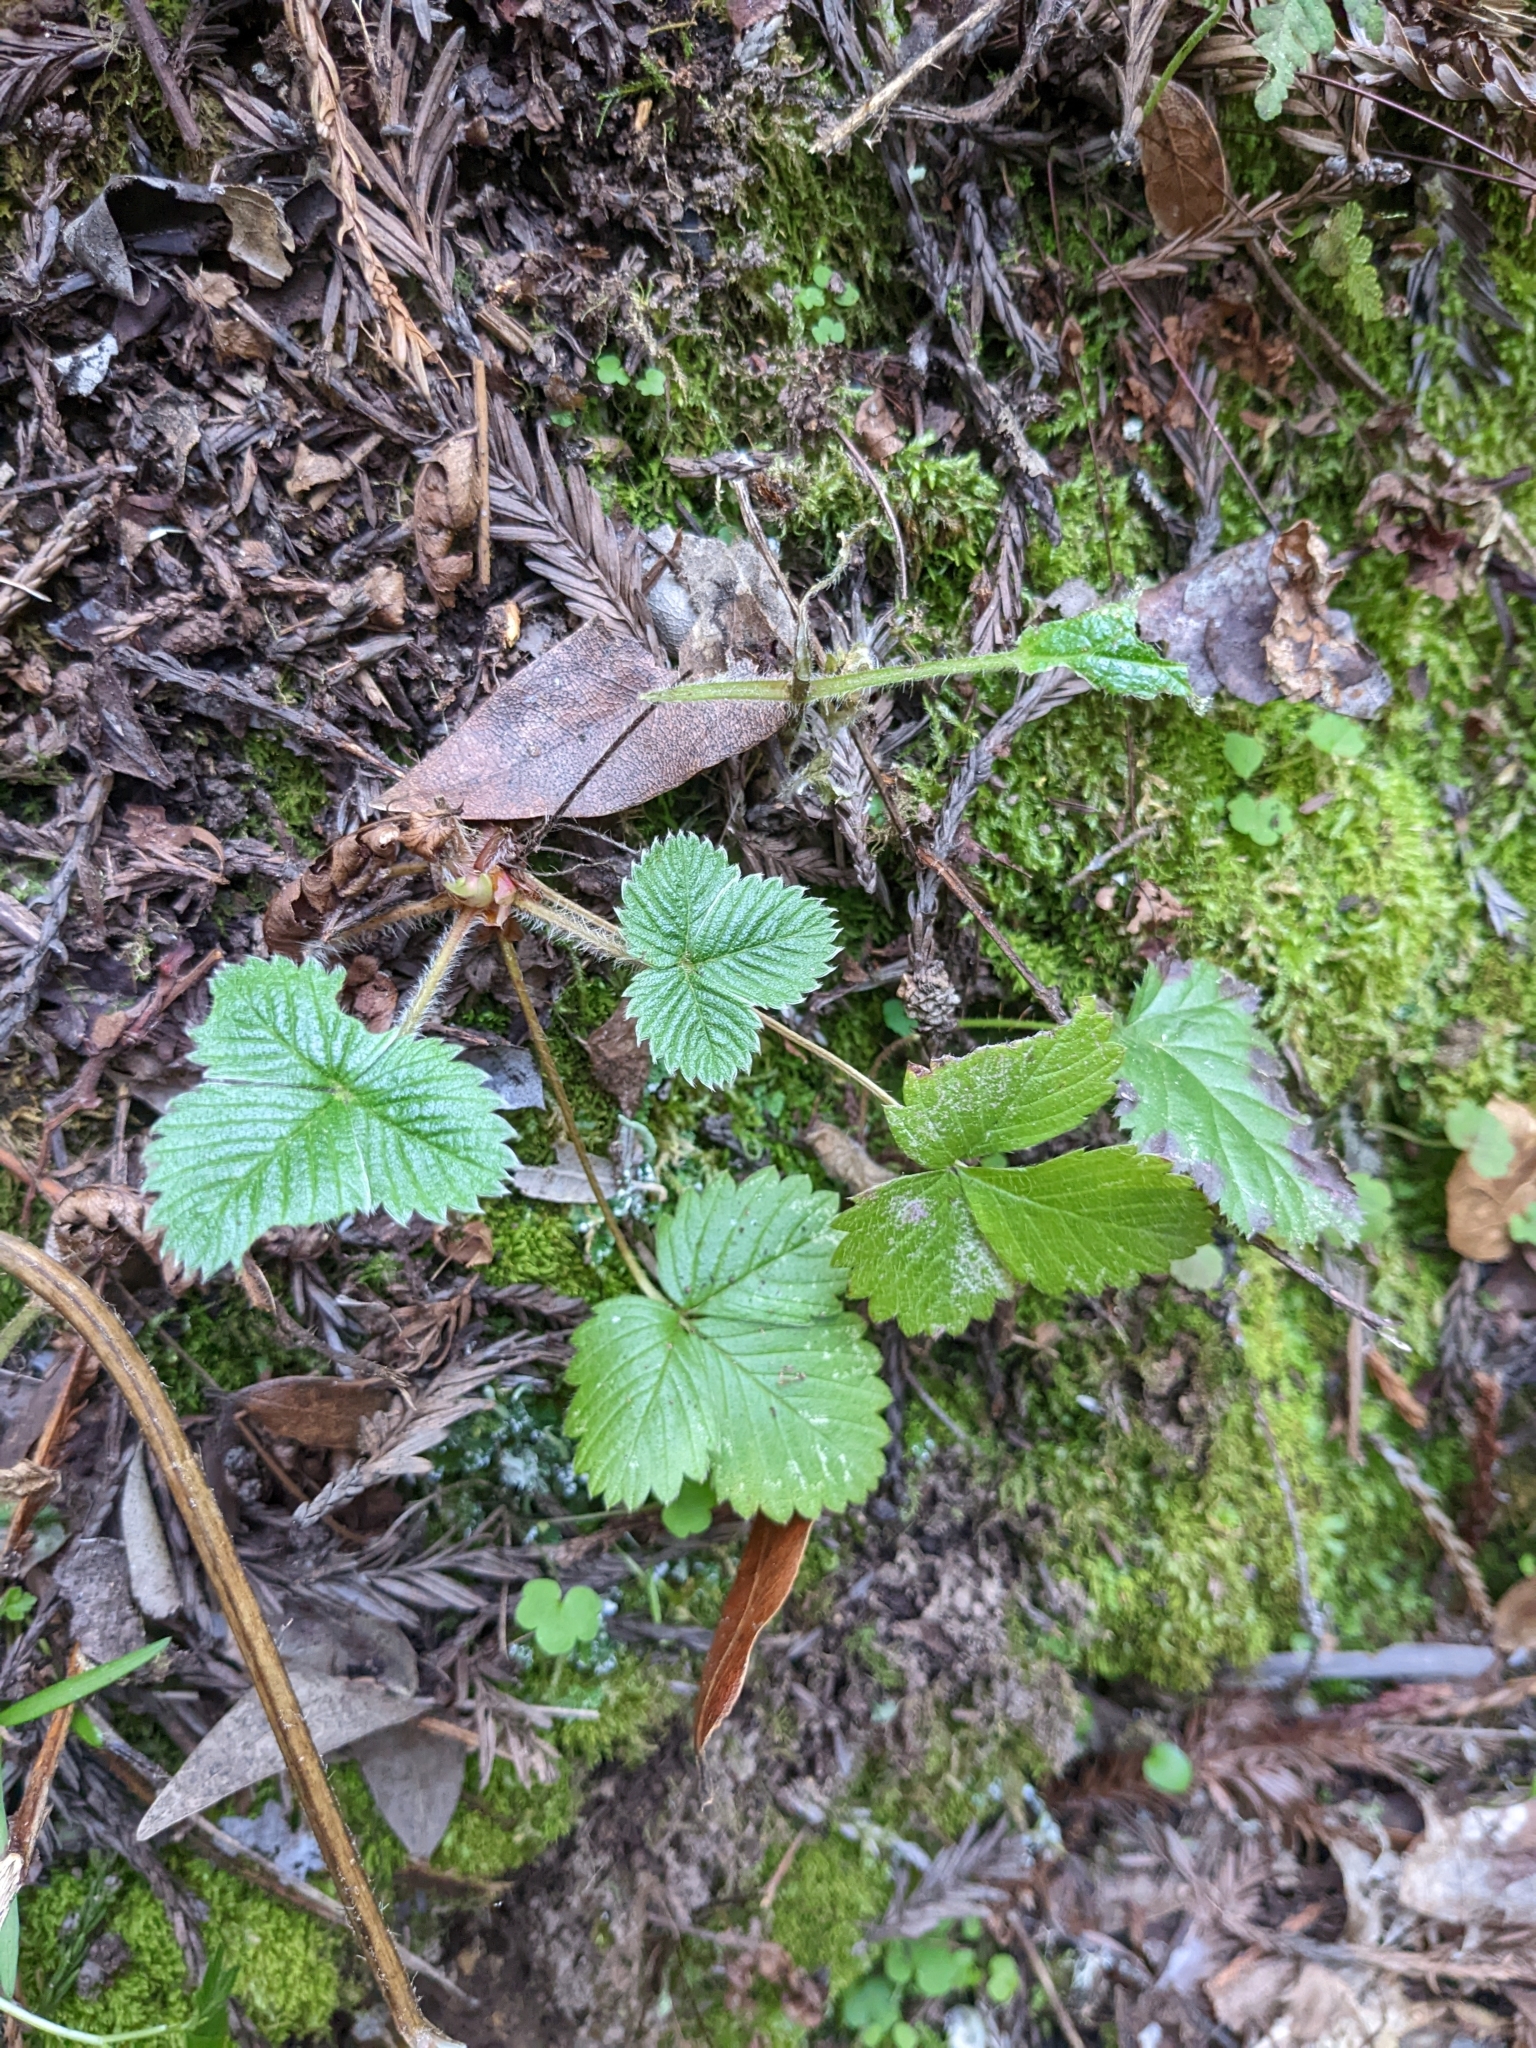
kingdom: Plantae
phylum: Tracheophyta
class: Magnoliopsida
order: Rosales
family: Rosaceae
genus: Fragaria
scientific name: Fragaria vesca
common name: Wild strawberry
